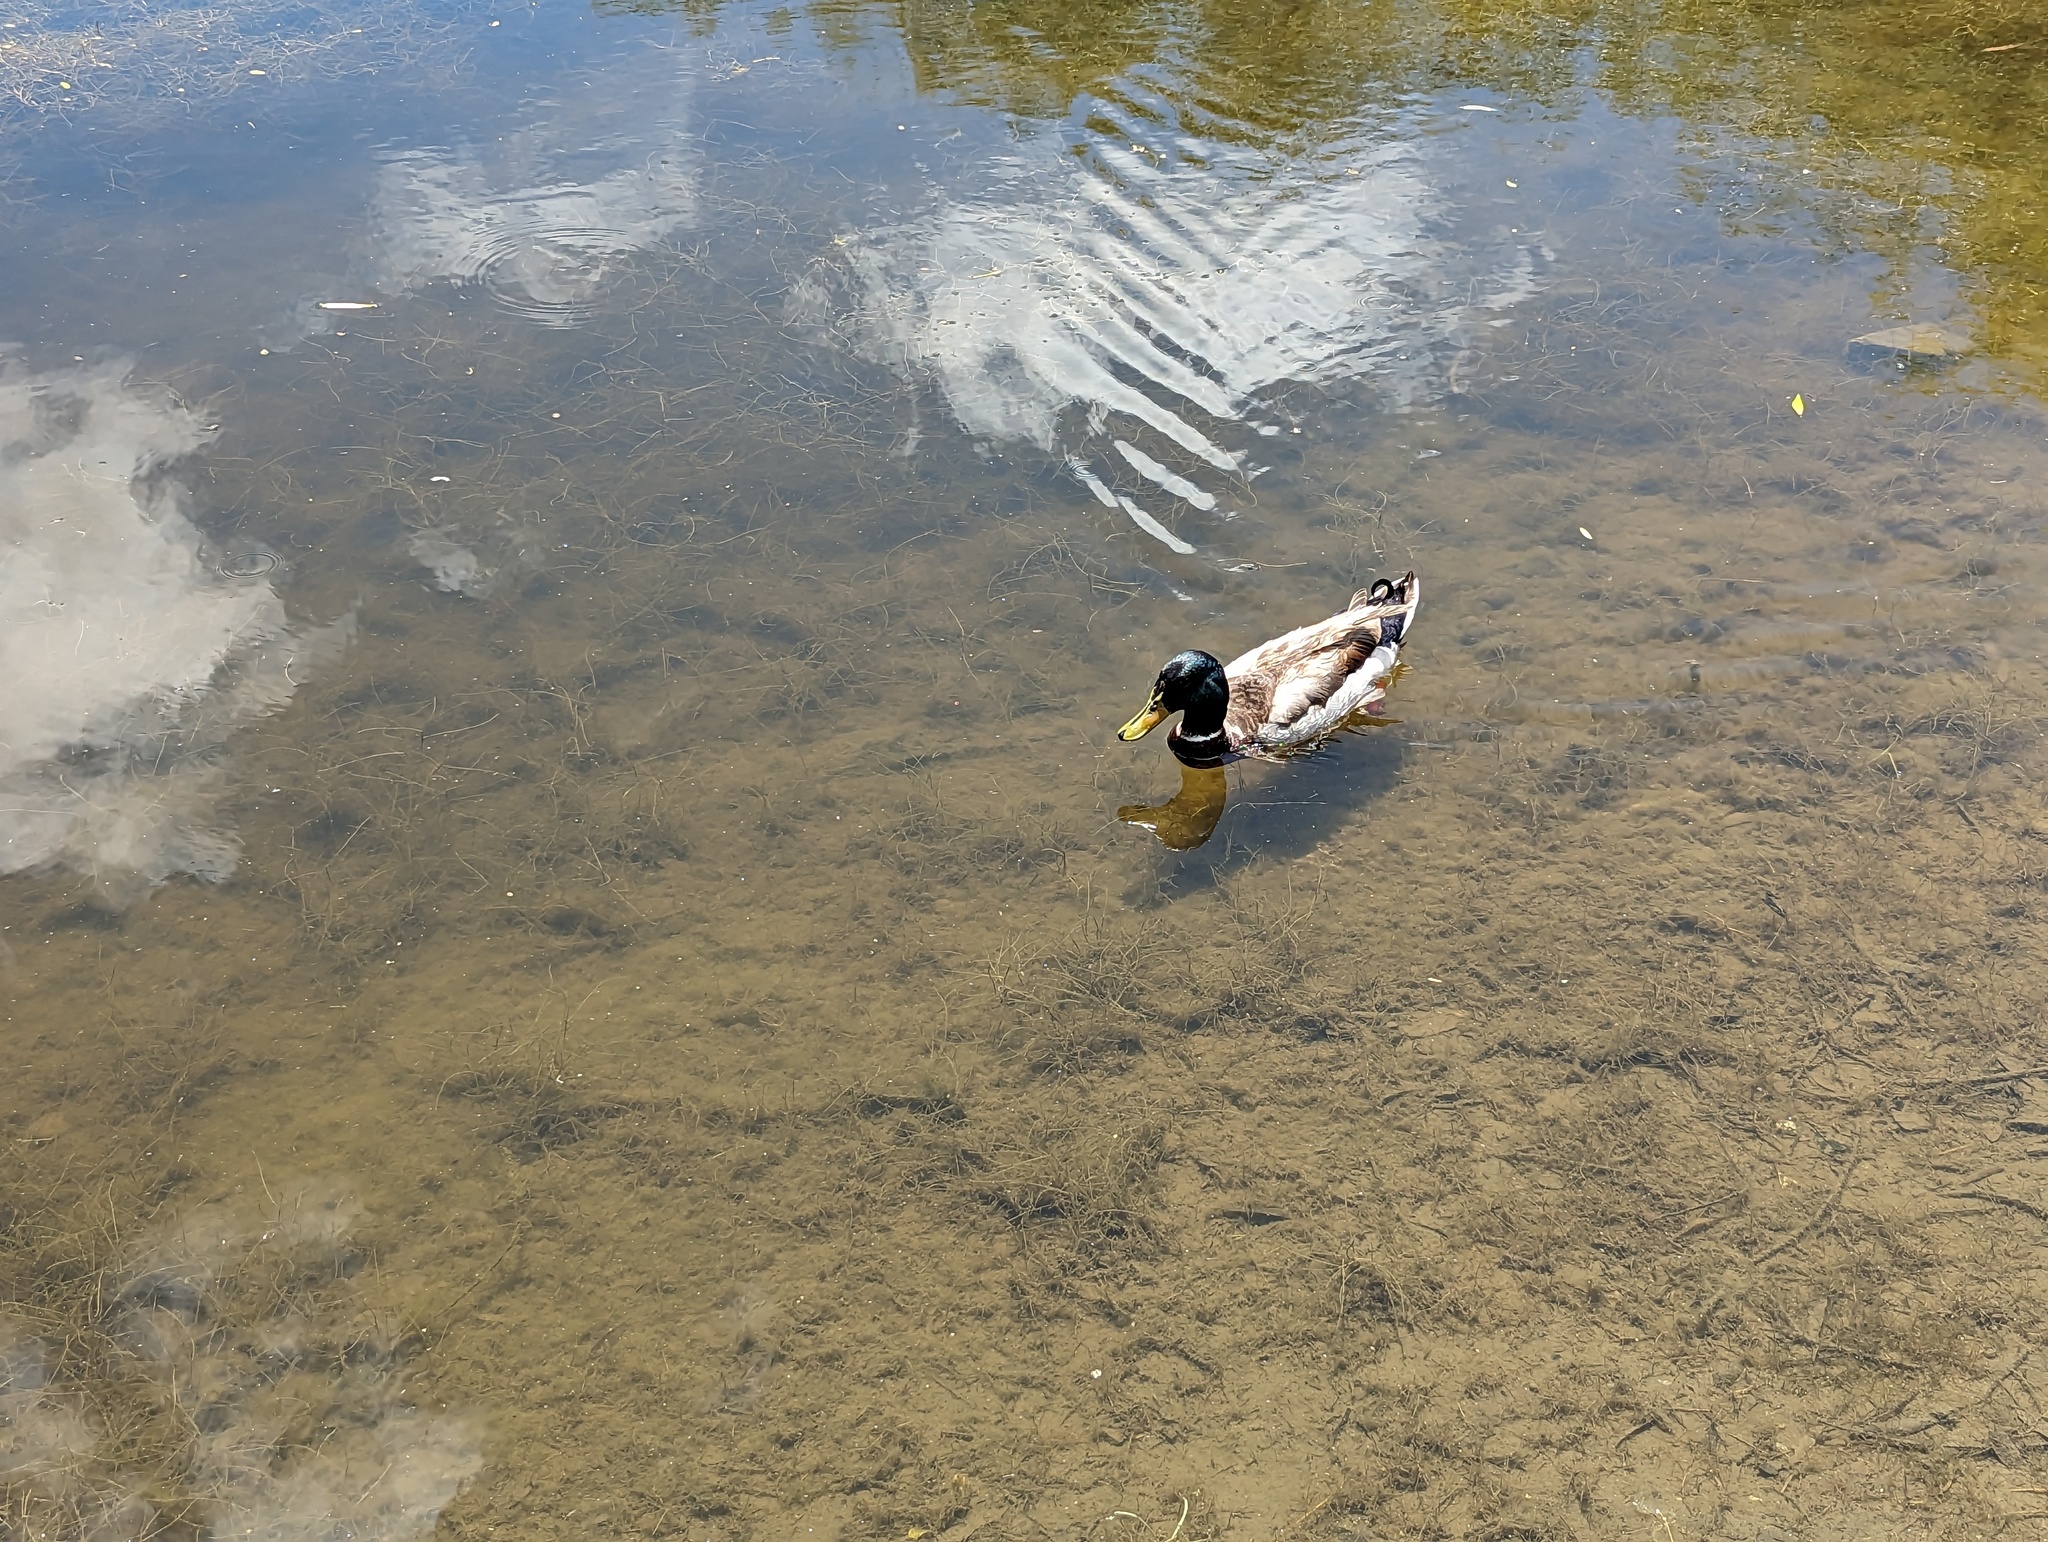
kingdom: Animalia
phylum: Chordata
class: Aves
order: Anseriformes
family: Anatidae
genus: Anas
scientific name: Anas platyrhynchos
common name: Mallard
